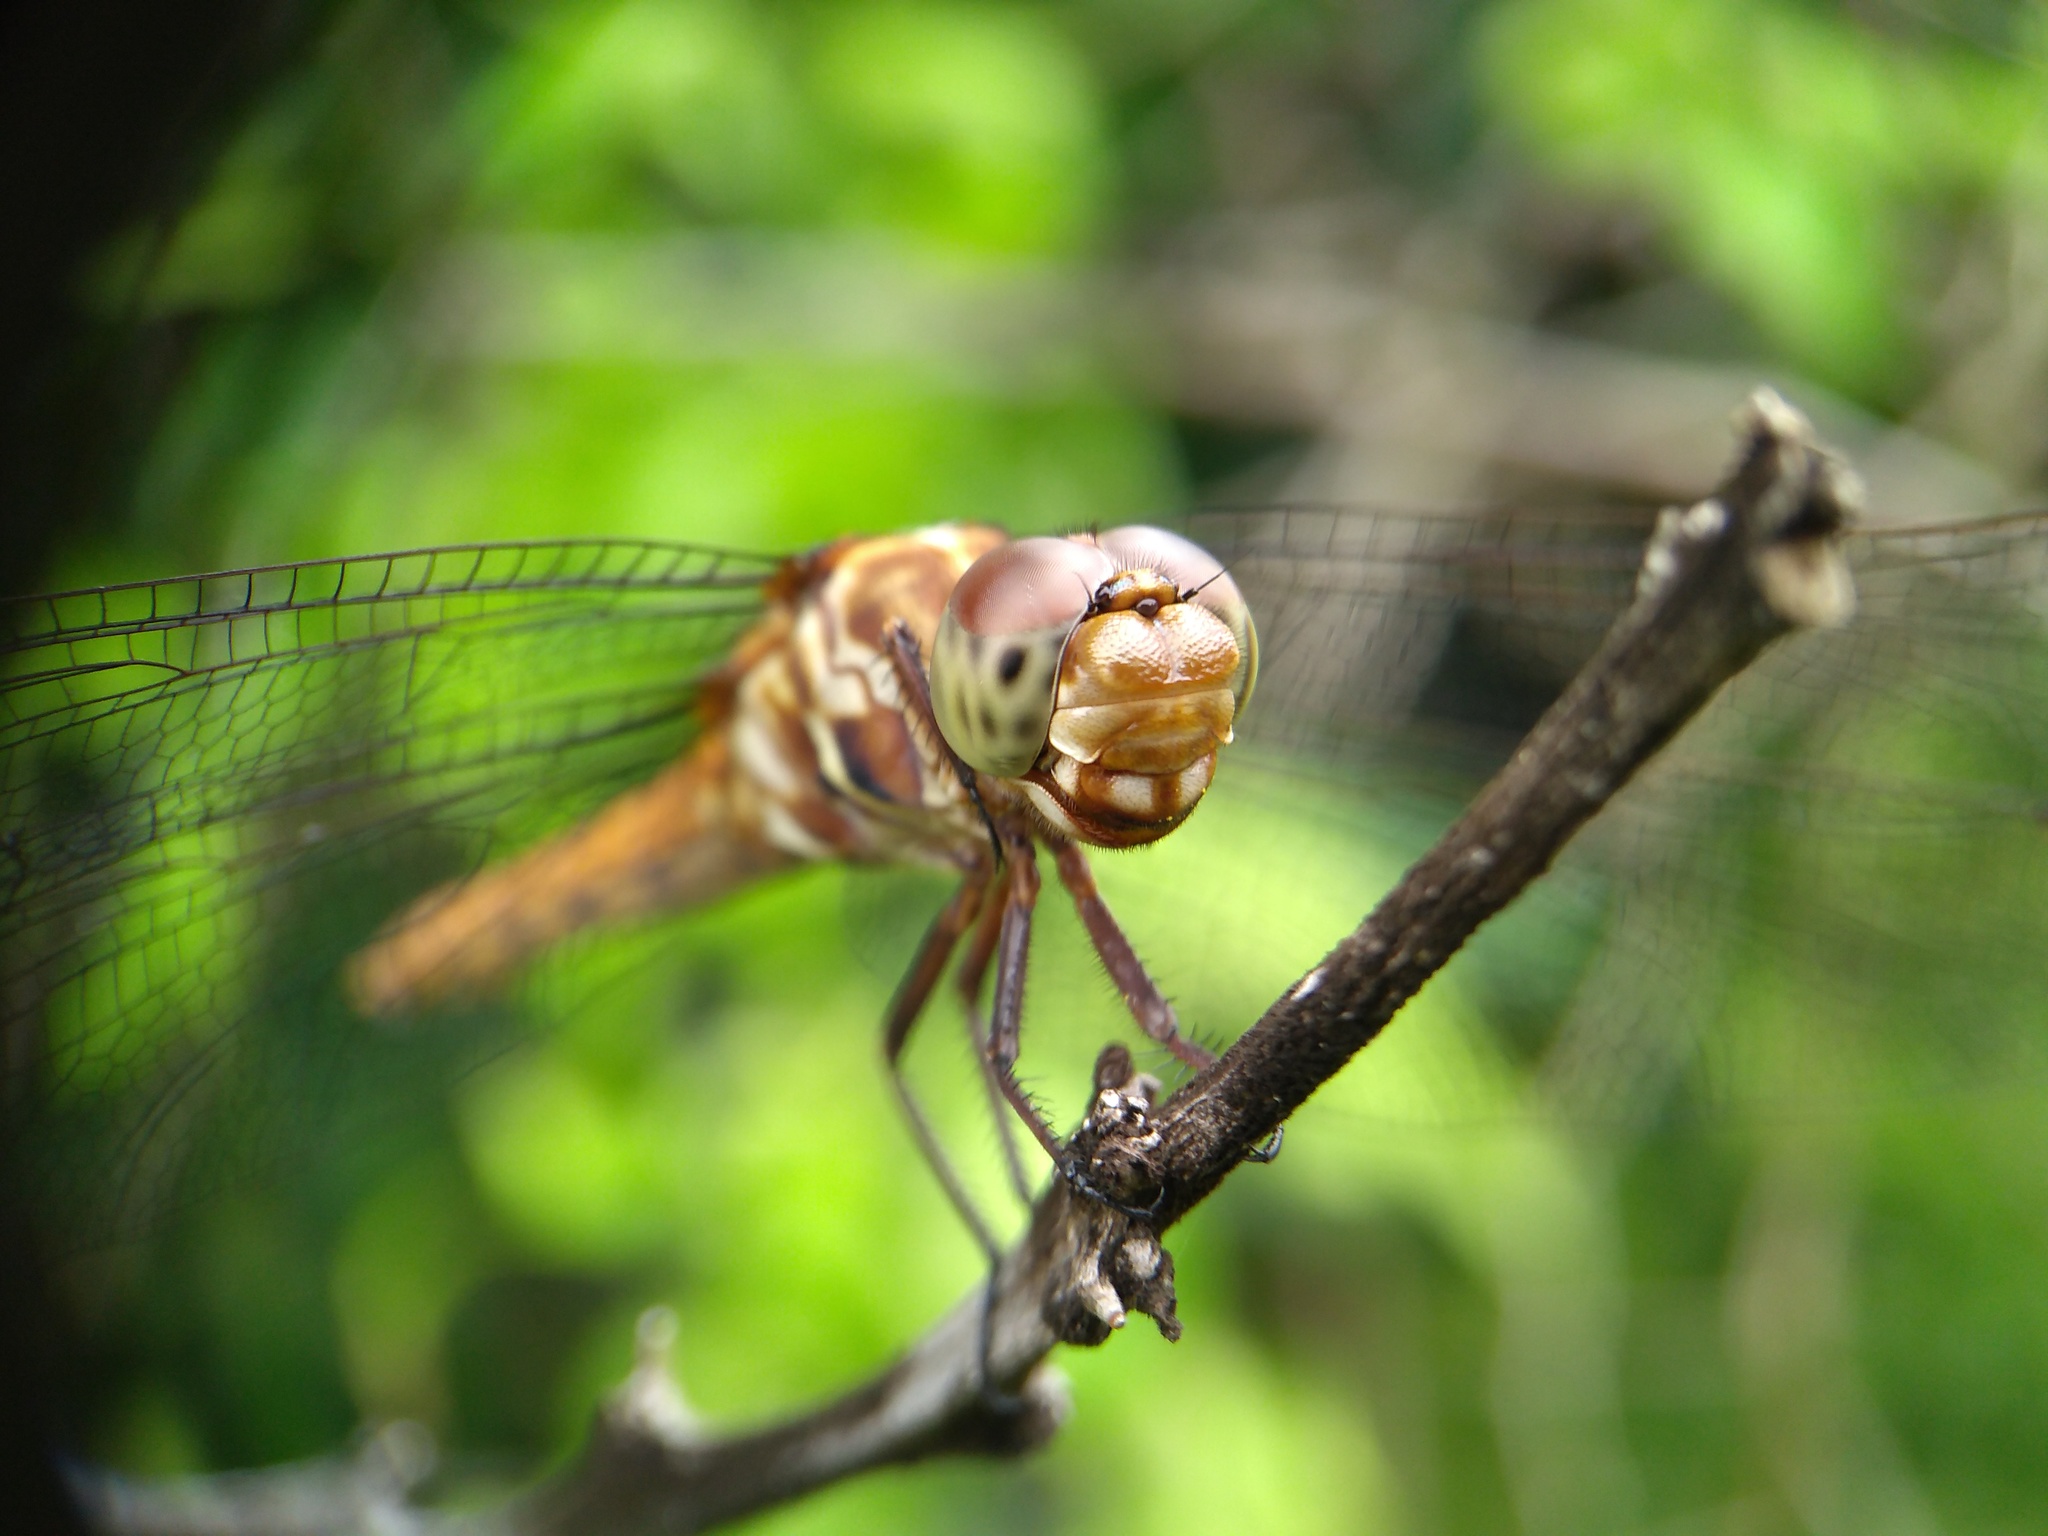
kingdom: Animalia
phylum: Arthropoda
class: Insecta
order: Odonata
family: Libellulidae
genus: Orthemis
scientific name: Orthemis ferruginea
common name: Roseate skimmer
